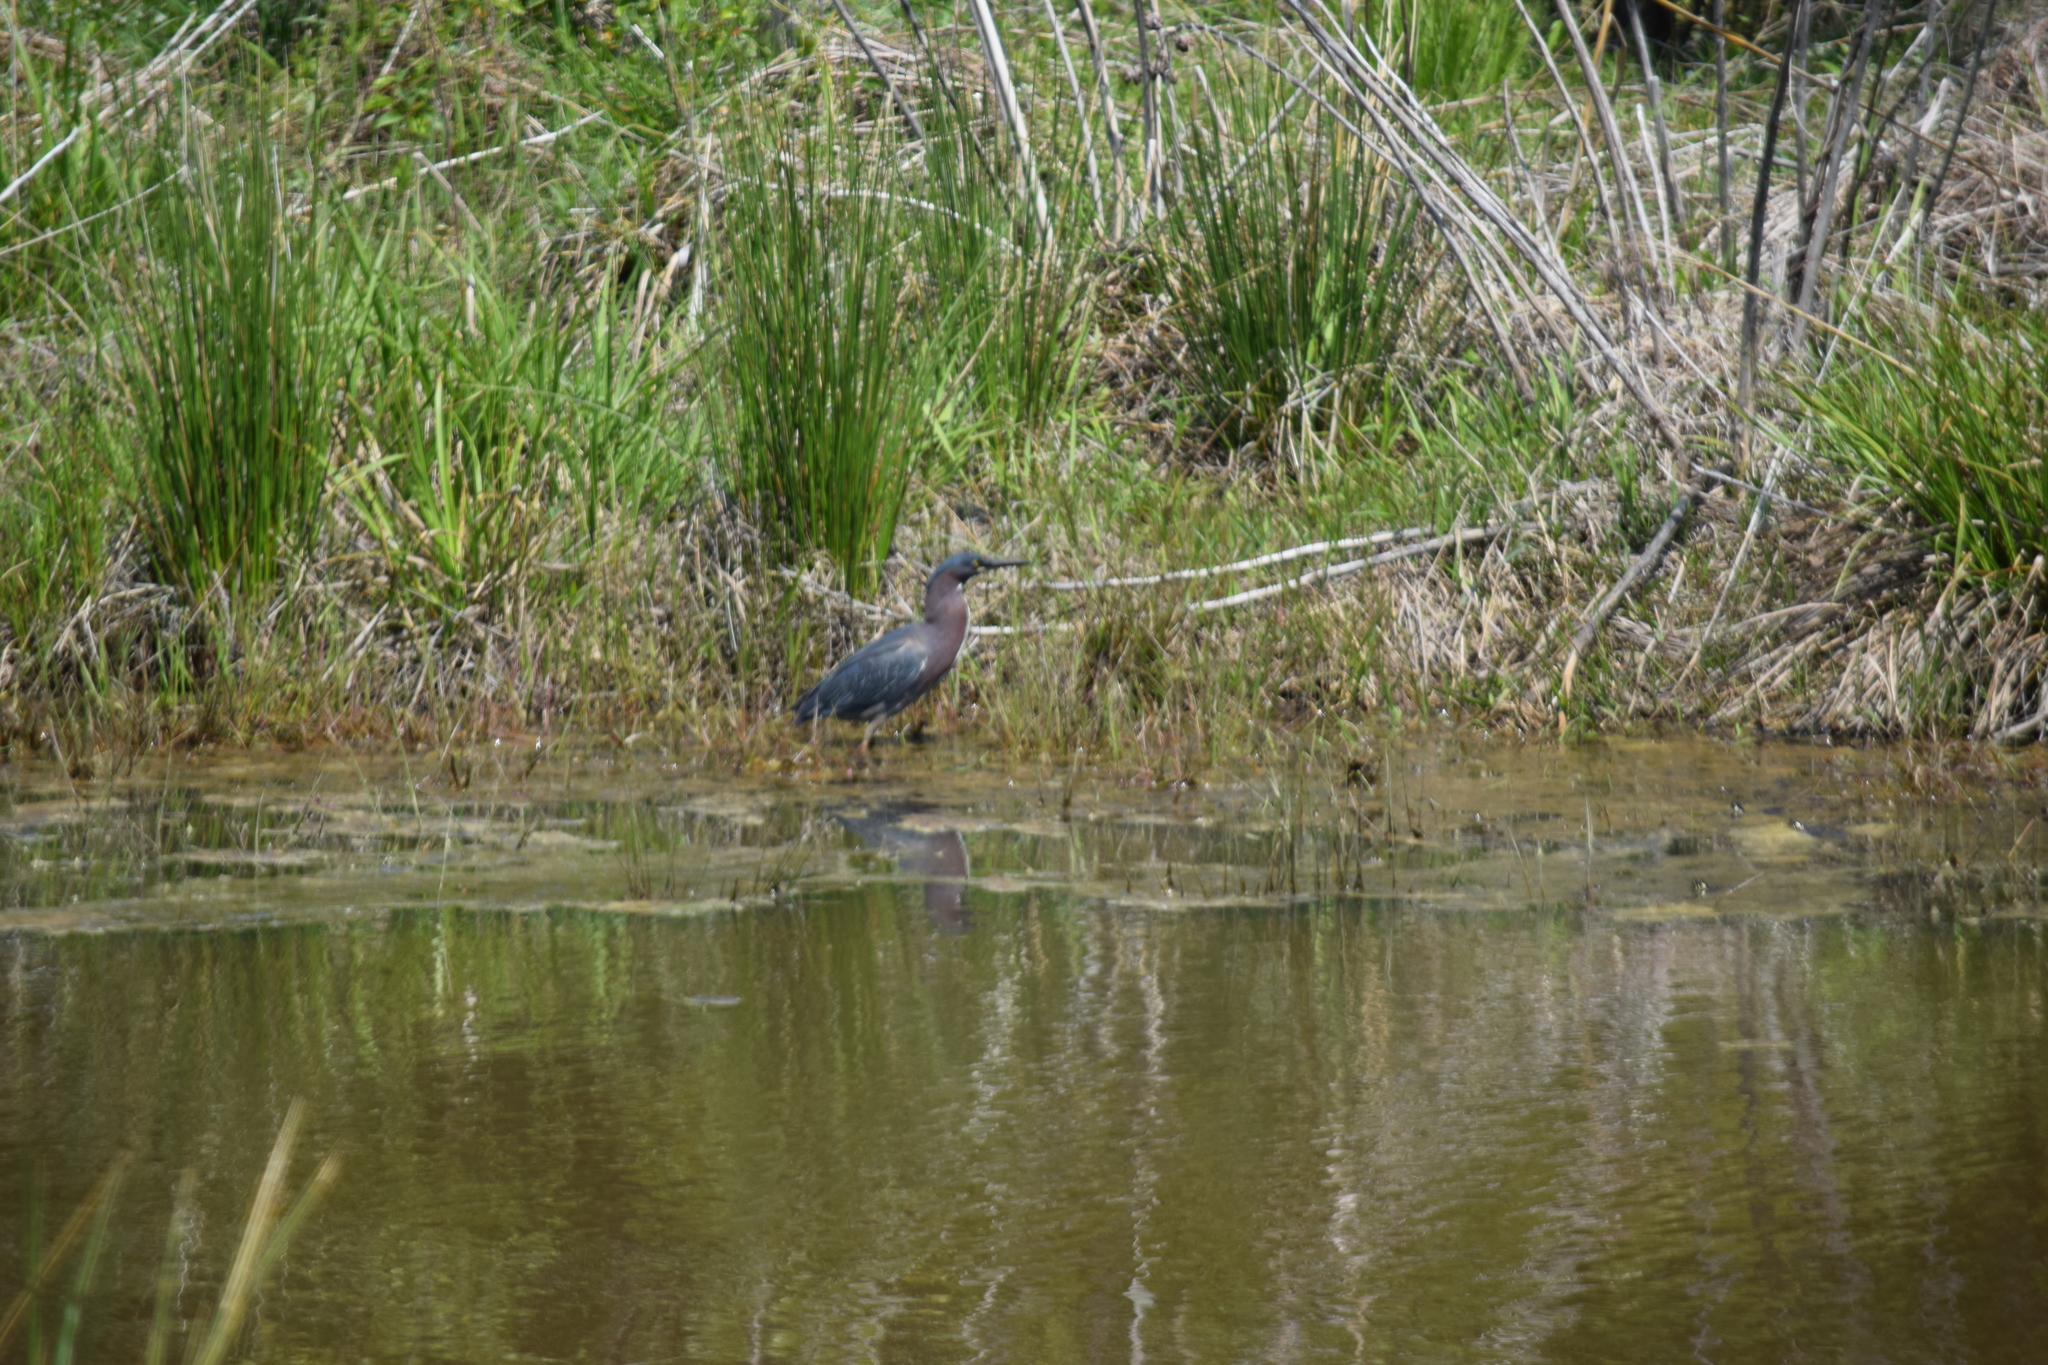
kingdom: Animalia
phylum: Chordata
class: Aves
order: Pelecaniformes
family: Ardeidae
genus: Butorides
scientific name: Butorides virescens
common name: Green heron
